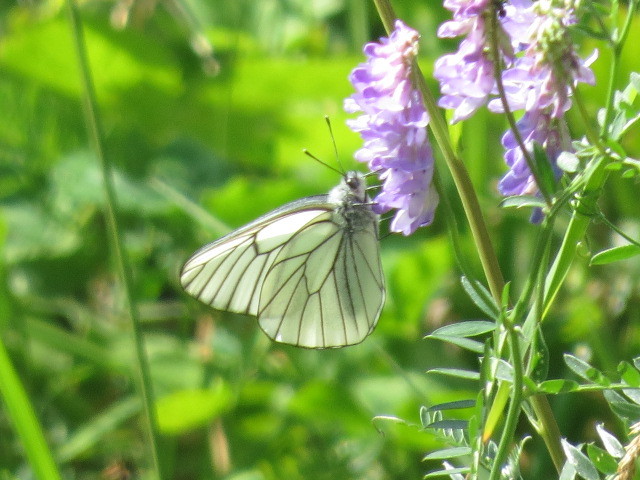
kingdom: Animalia
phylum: Arthropoda
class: Insecta
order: Lepidoptera
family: Pieridae
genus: Aporia
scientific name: Aporia crataegi
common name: Black-veined white
